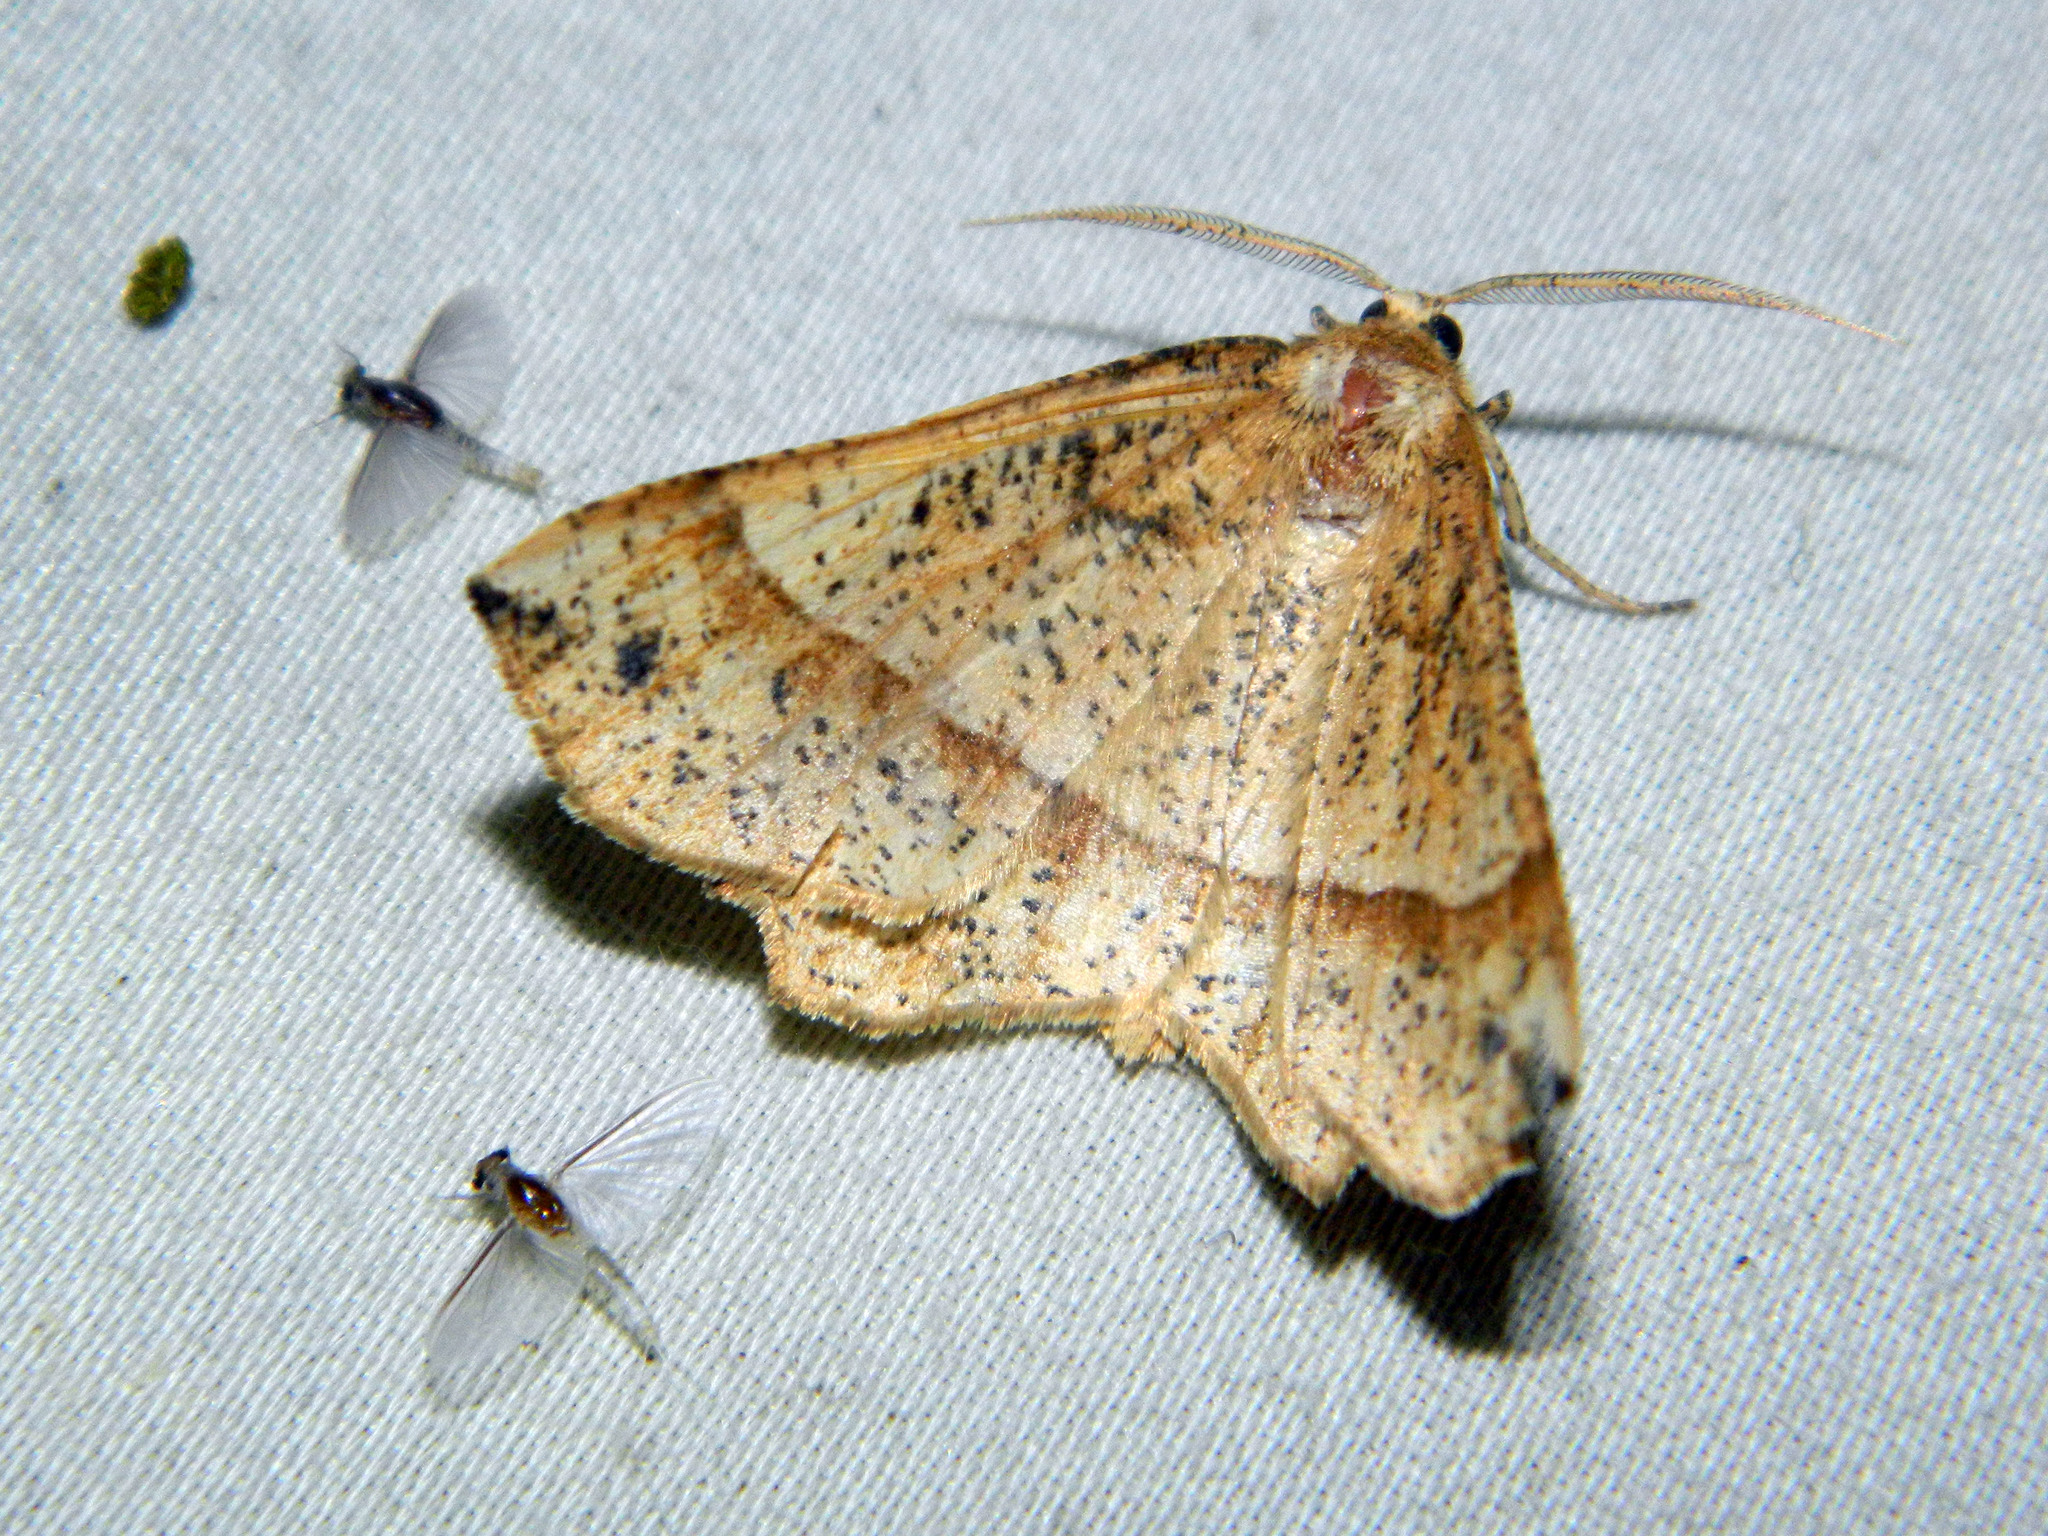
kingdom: Animalia
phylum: Arthropoda
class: Insecta
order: Lepidoptera
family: Geometridae
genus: Euchlaena
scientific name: Euchlaena tigrinaria
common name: Mottled euchlaena moth
